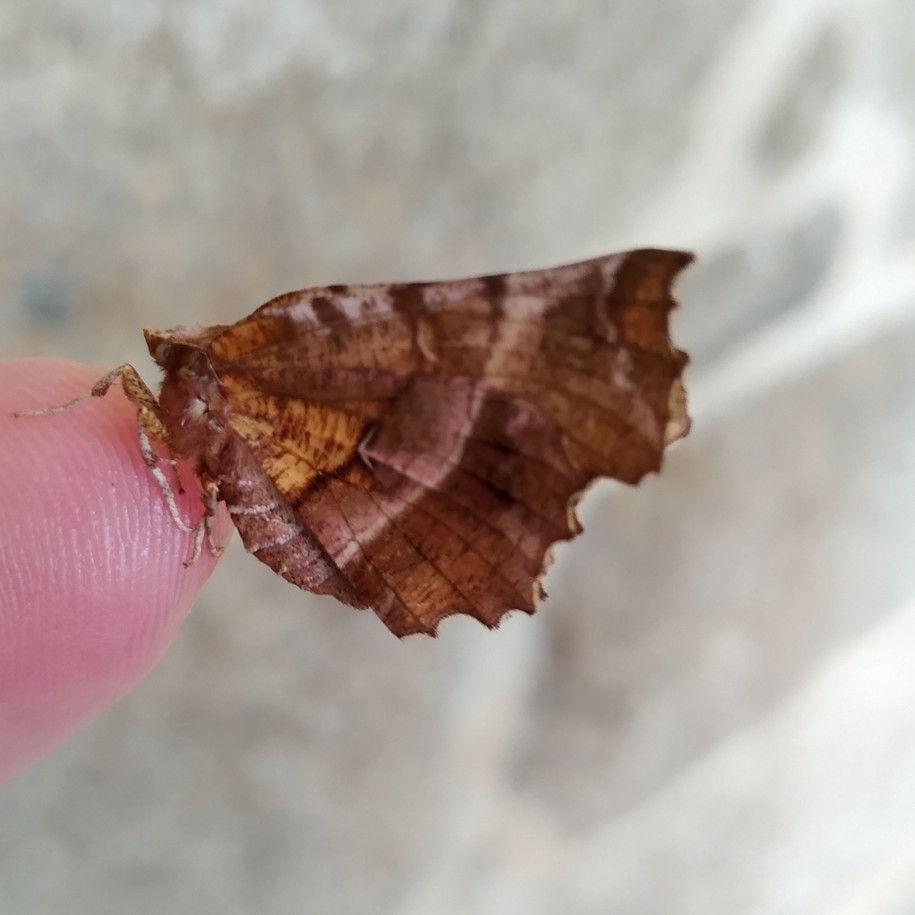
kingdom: Animalia
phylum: Arthropoda
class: Insecta
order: Lepidoptera
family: Geometridae
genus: Selenia
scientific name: Selenia dentaria
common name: Early thorn
